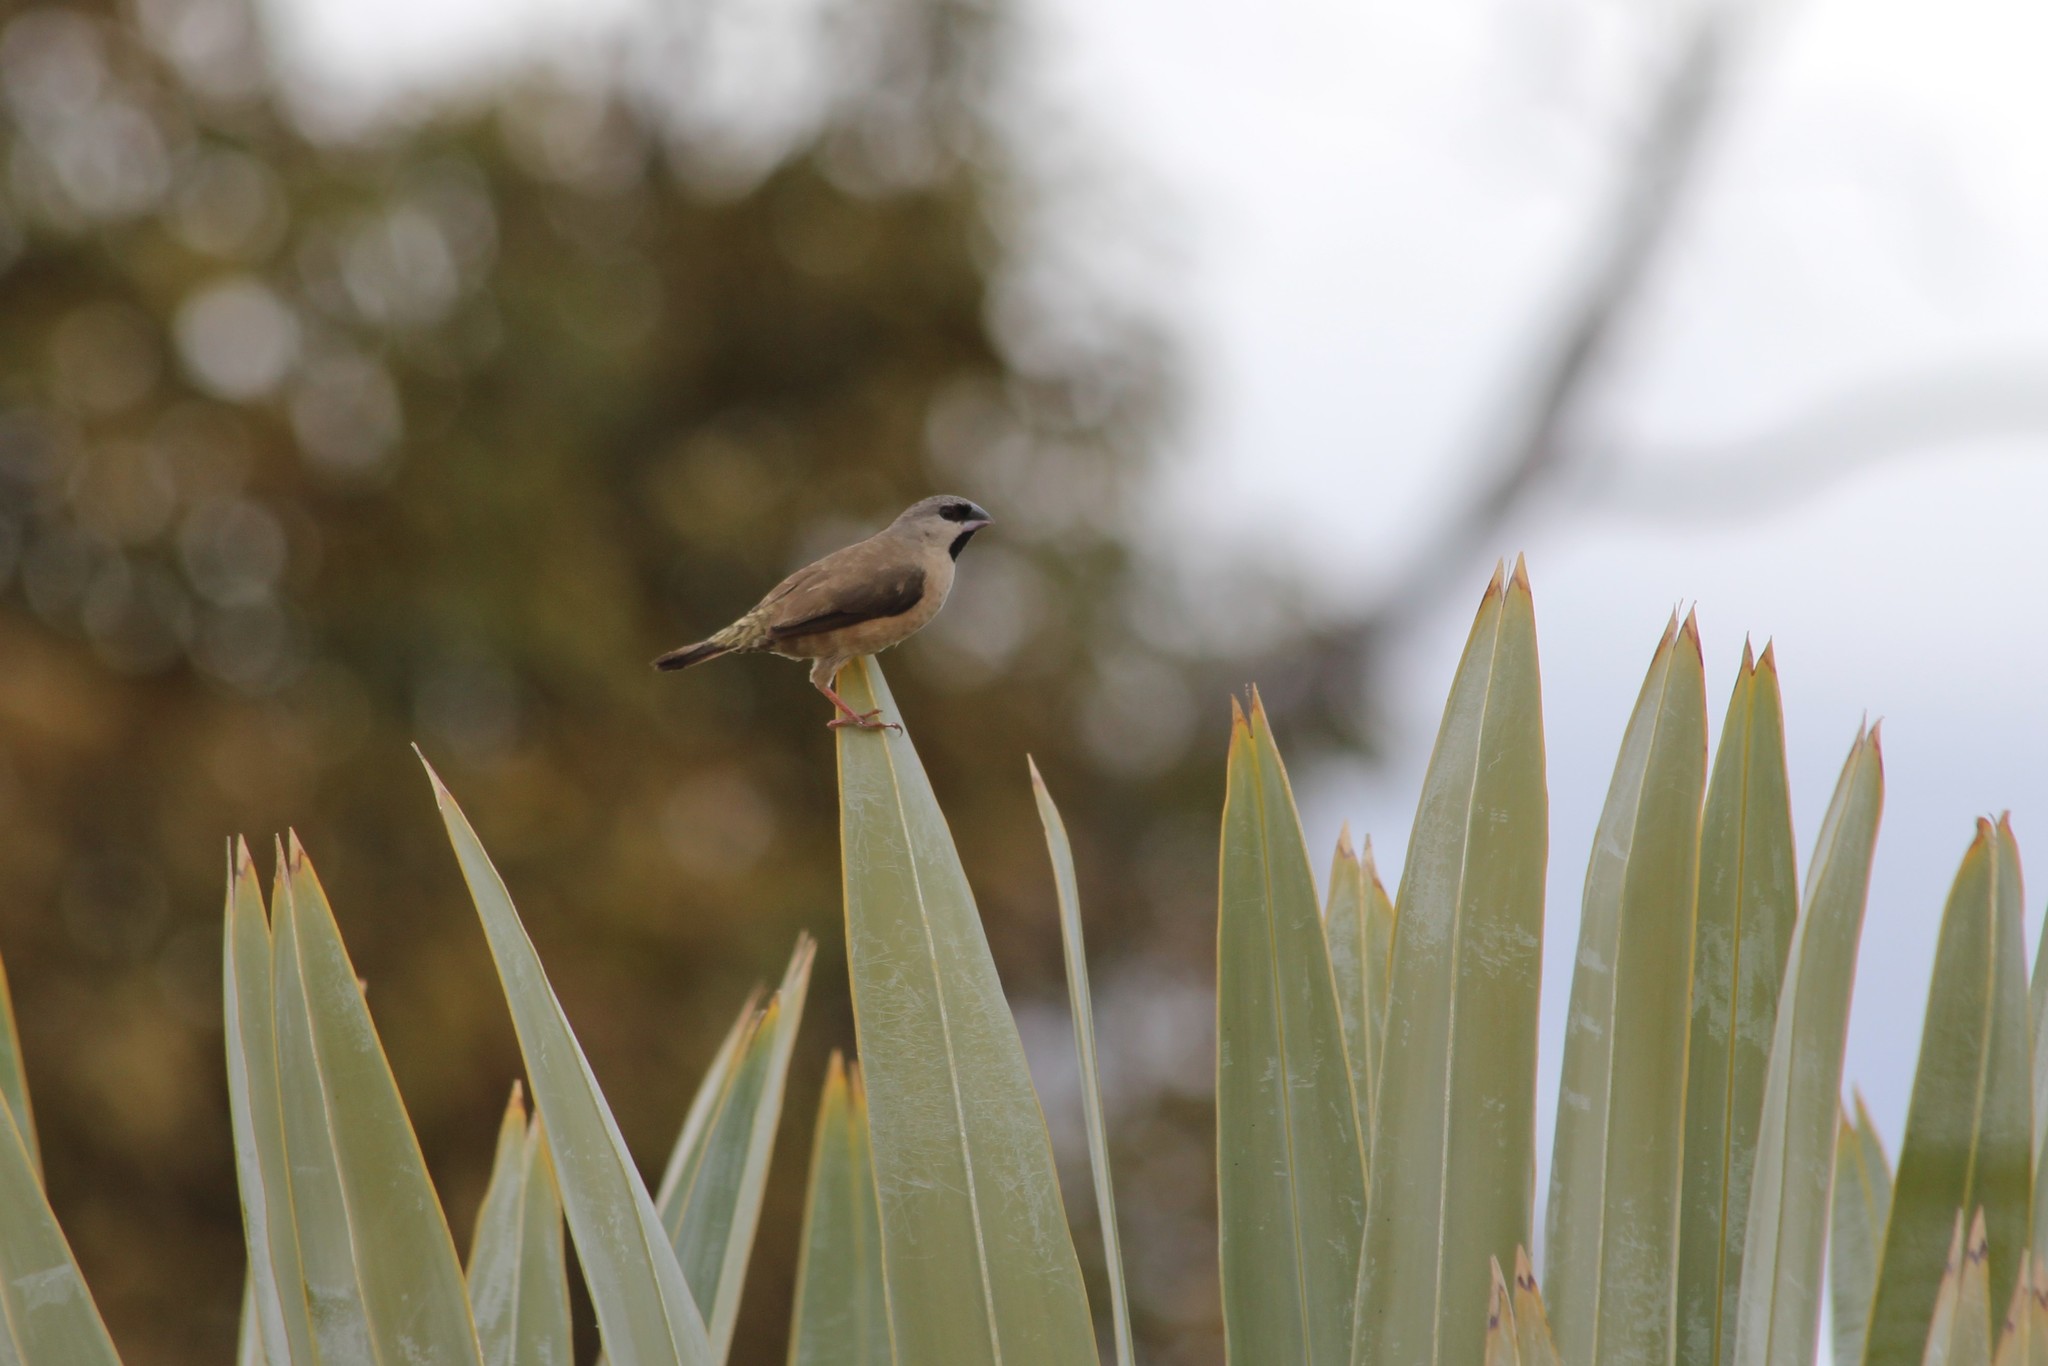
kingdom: Animalia
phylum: Chordata
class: Aves
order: Passeriformes
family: Estrildidae
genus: Lemuresthes
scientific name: Lemuresthes nana
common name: Madagascar mannikin
